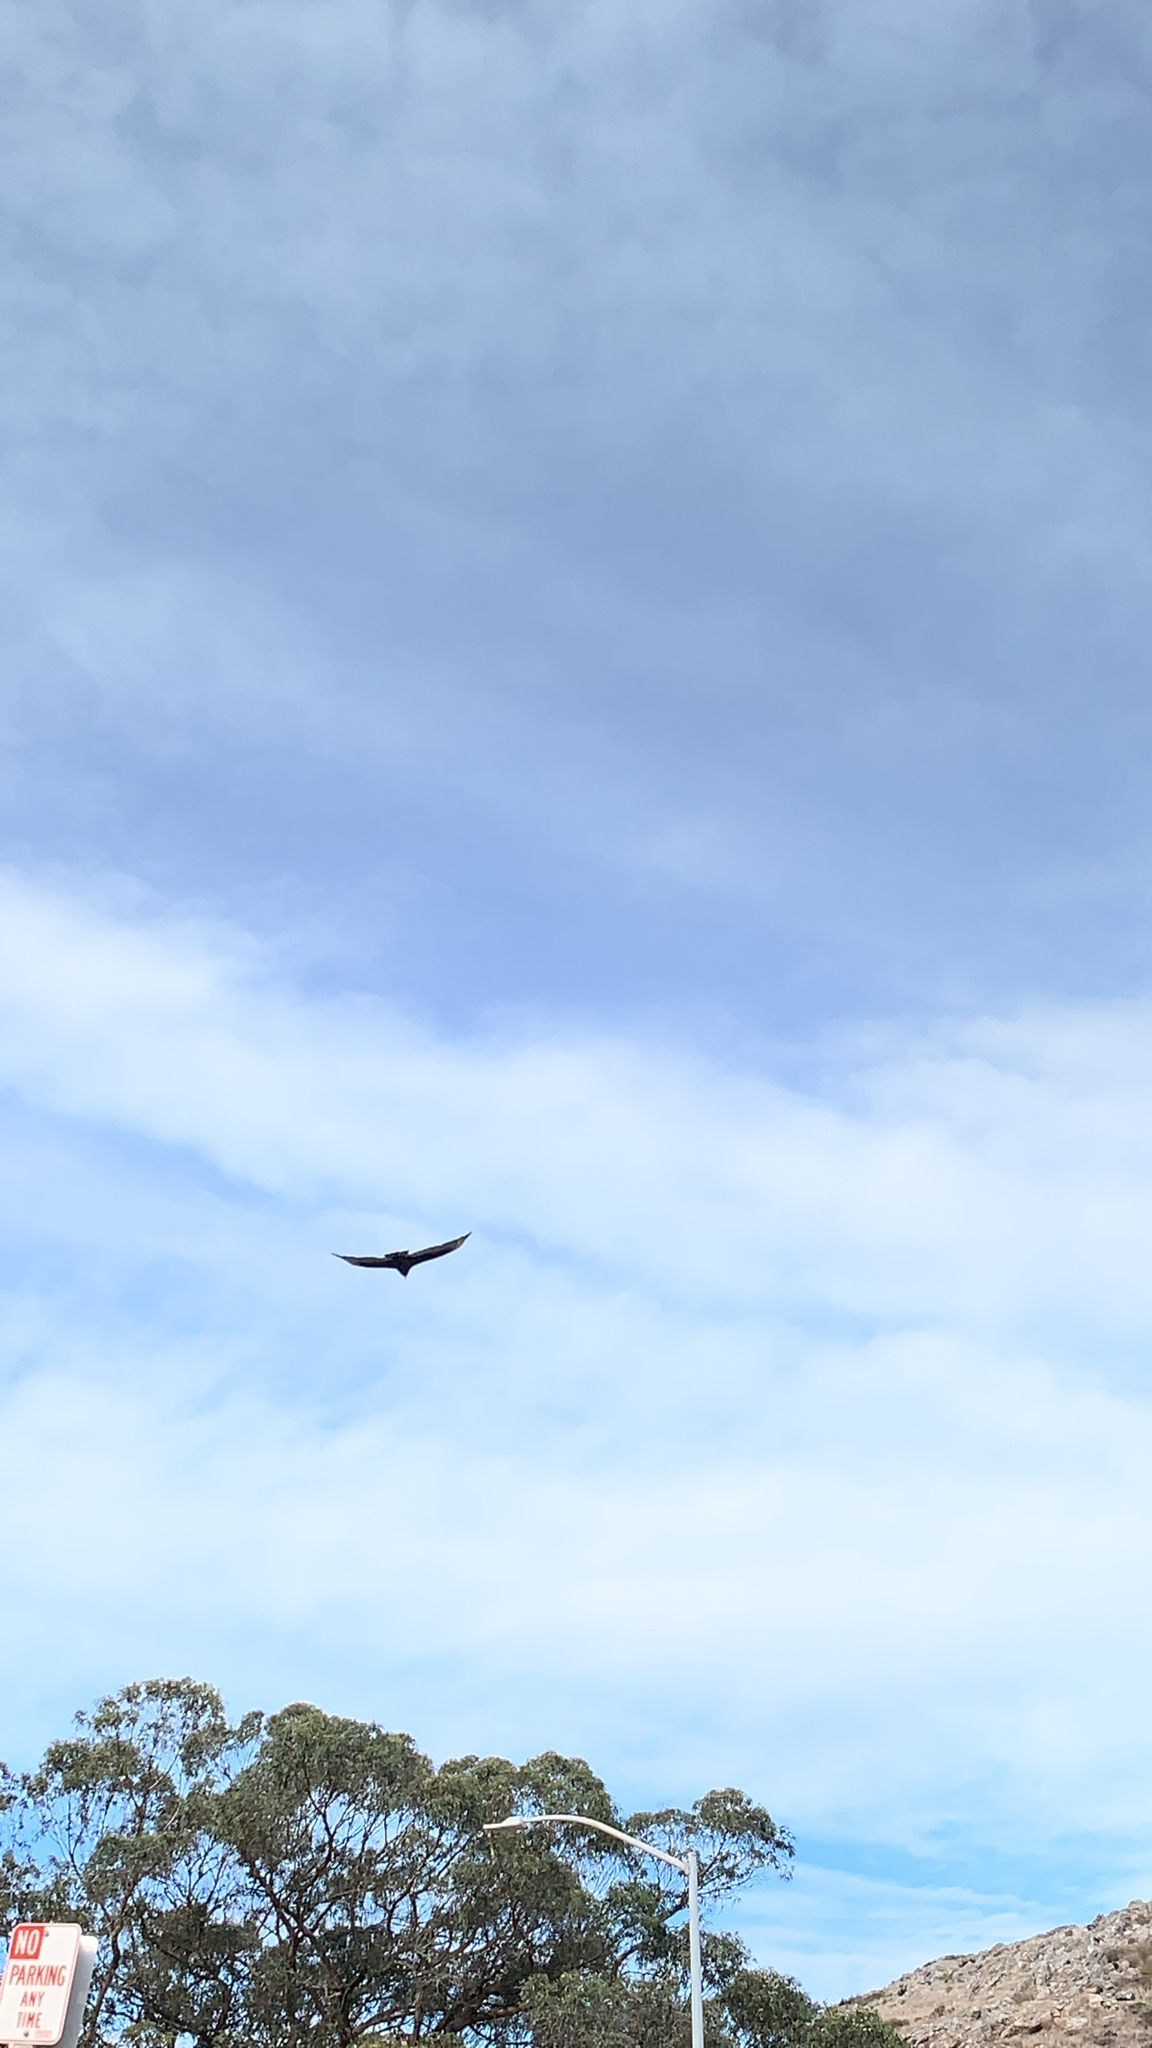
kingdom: Animalia
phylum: Chordata
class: Aves
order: Accipitriformes
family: Cathartidae
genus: Cathartes
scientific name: Cathartes aura
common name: Turkey vulture
